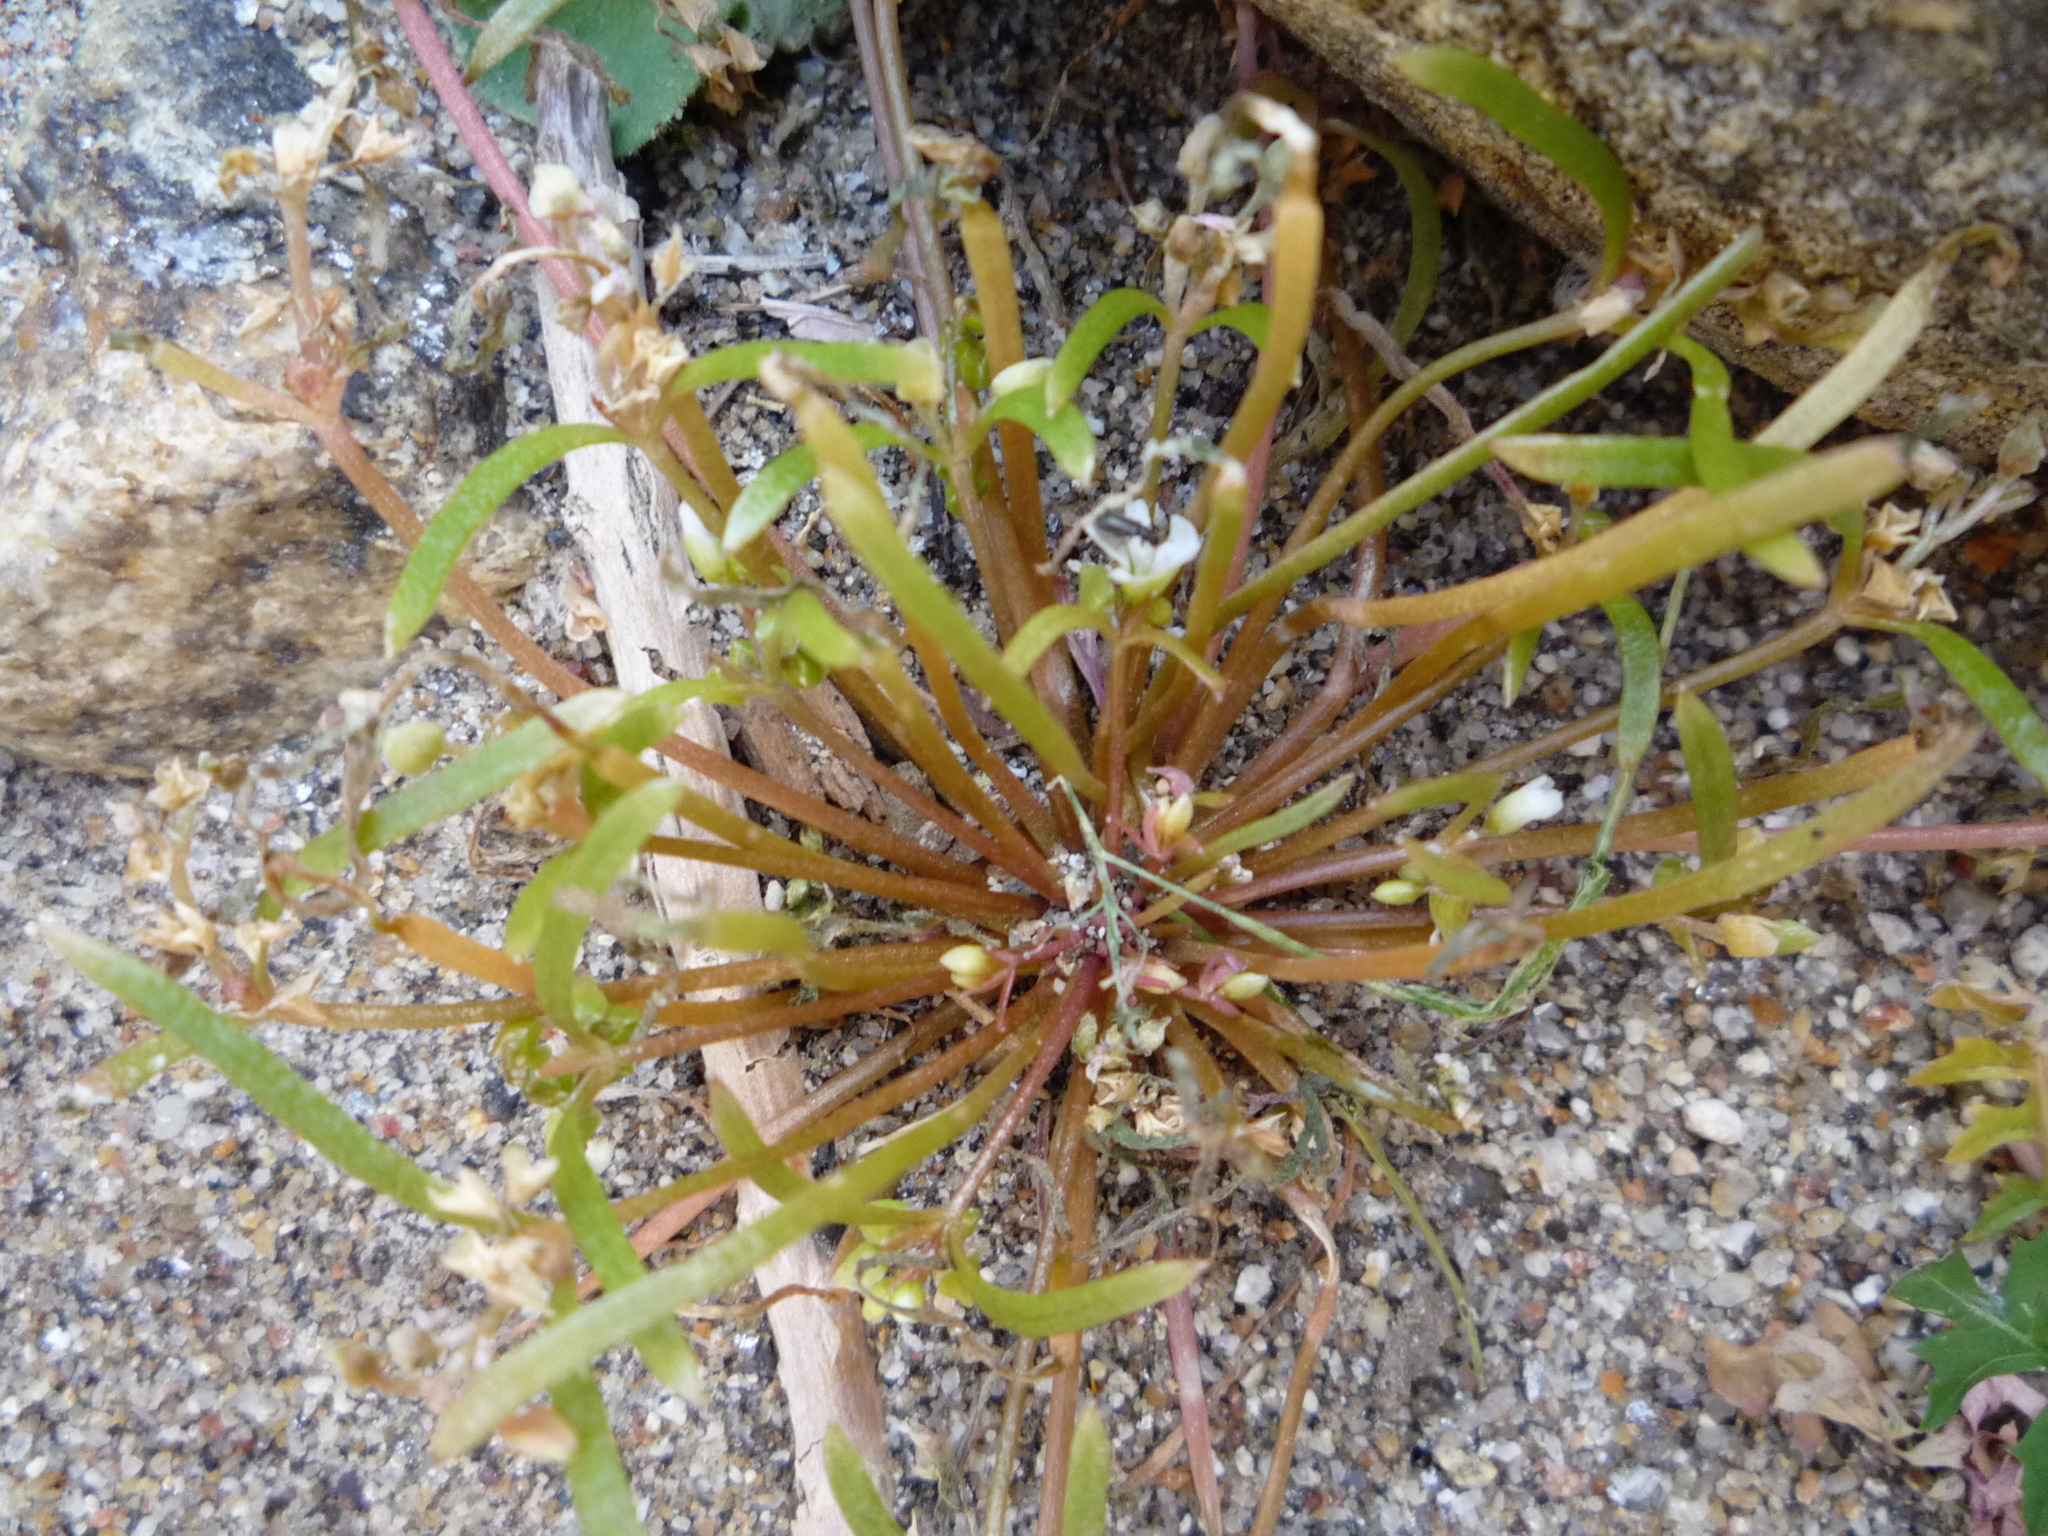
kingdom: Plantae
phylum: Tracheophyta
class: Magnoliopsida
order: Caryophyllales
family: Montiaceae
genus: Claytonia
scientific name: Claytonia parviflora
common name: Indian-lettuce
